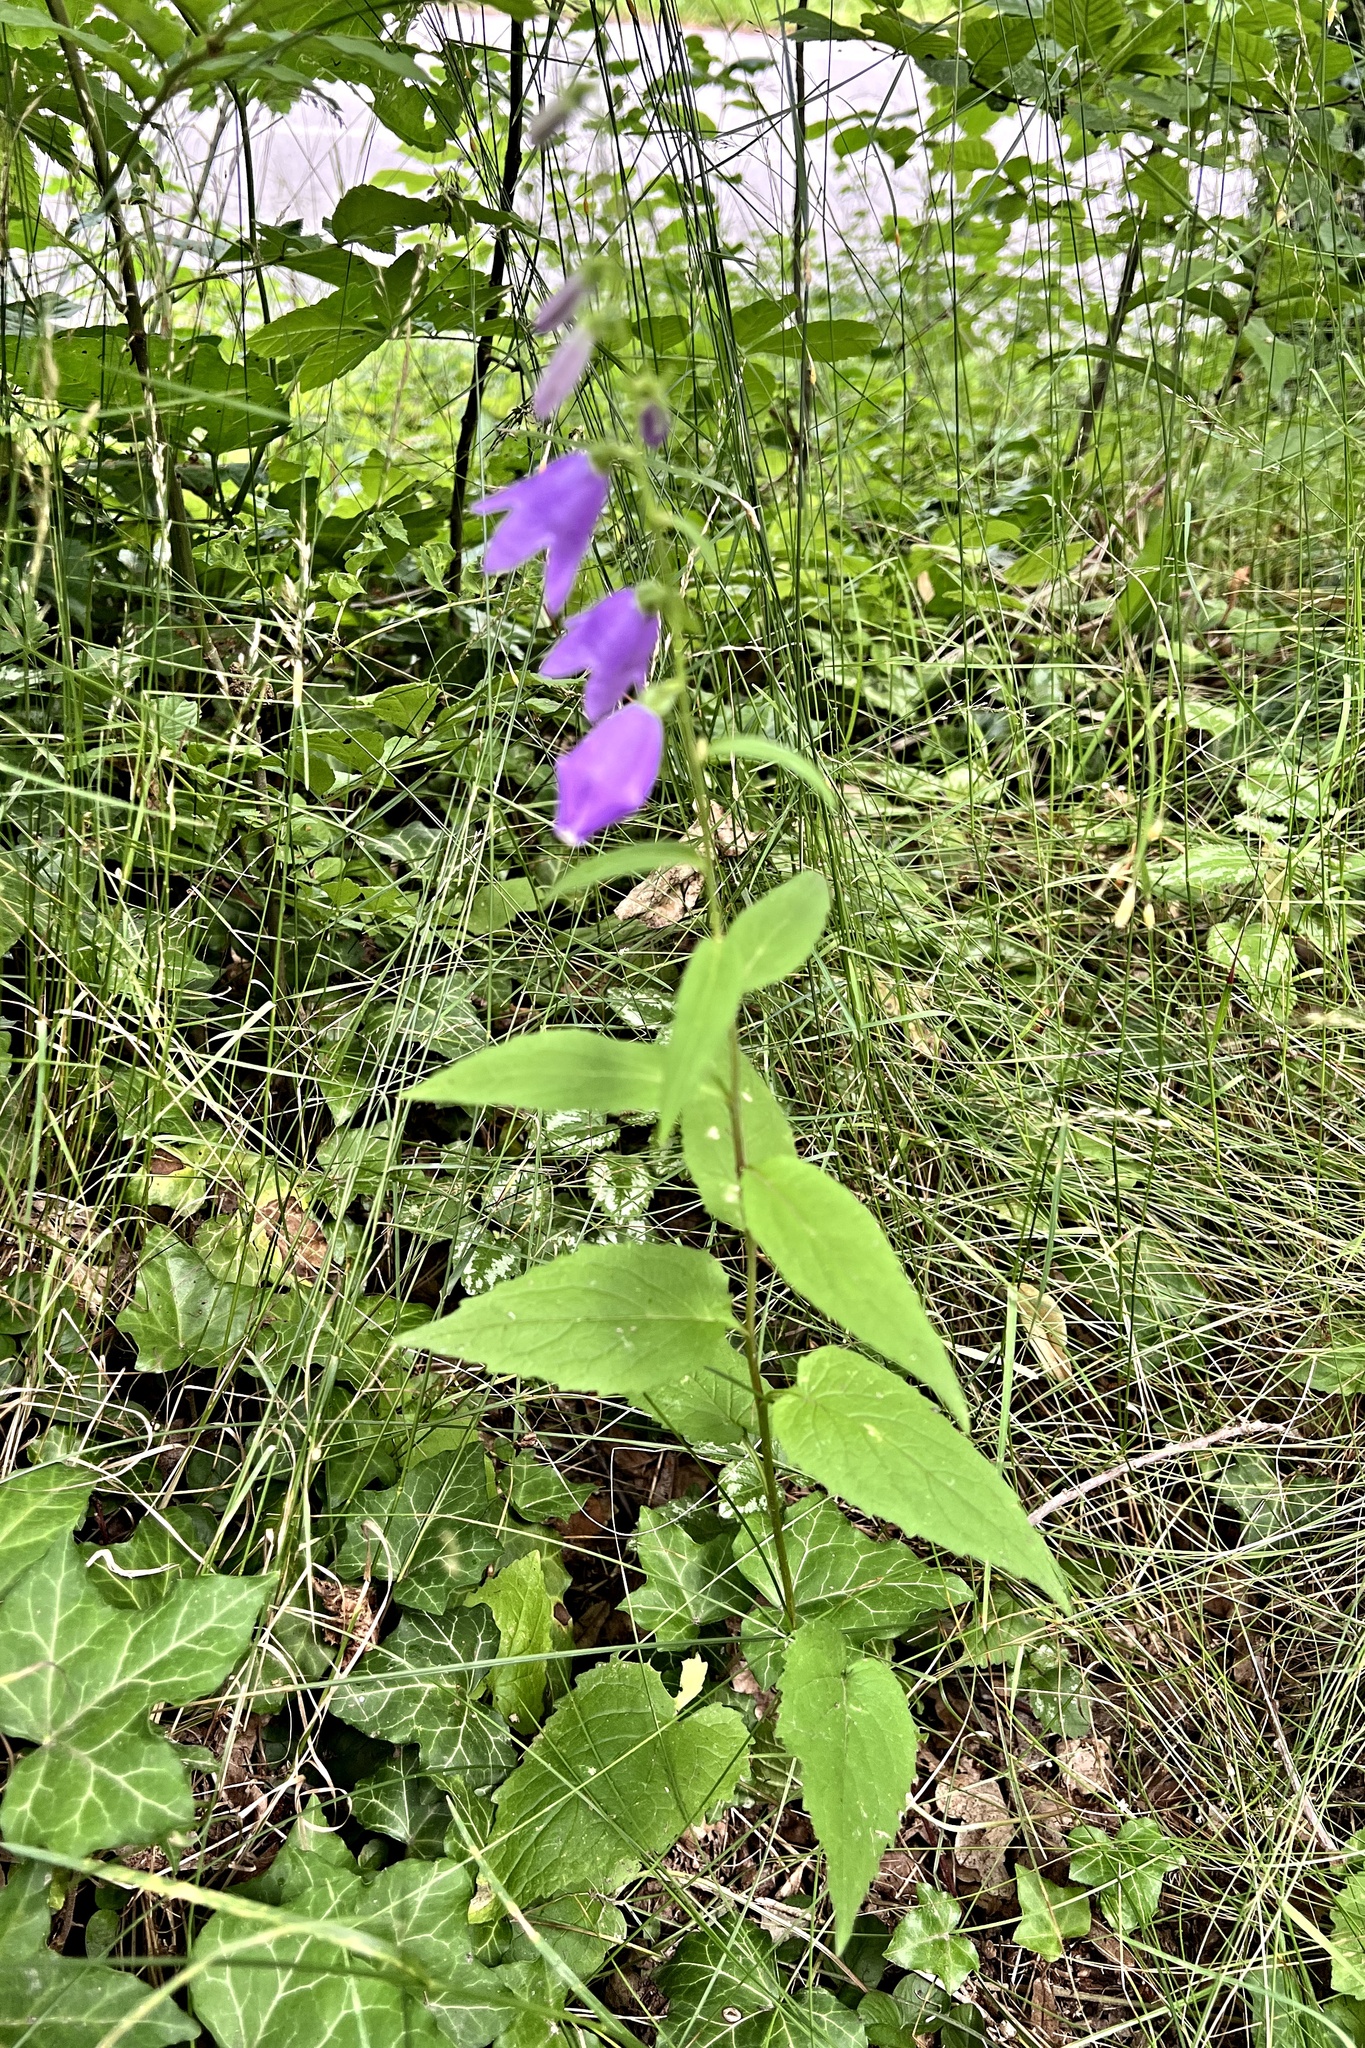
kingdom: Plantae
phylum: Tracheophyta
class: Magnoliopsida
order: Asterales
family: Campanulaceae
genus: Campanula
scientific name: Campanula rapunculoides
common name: Creeping bellflower
